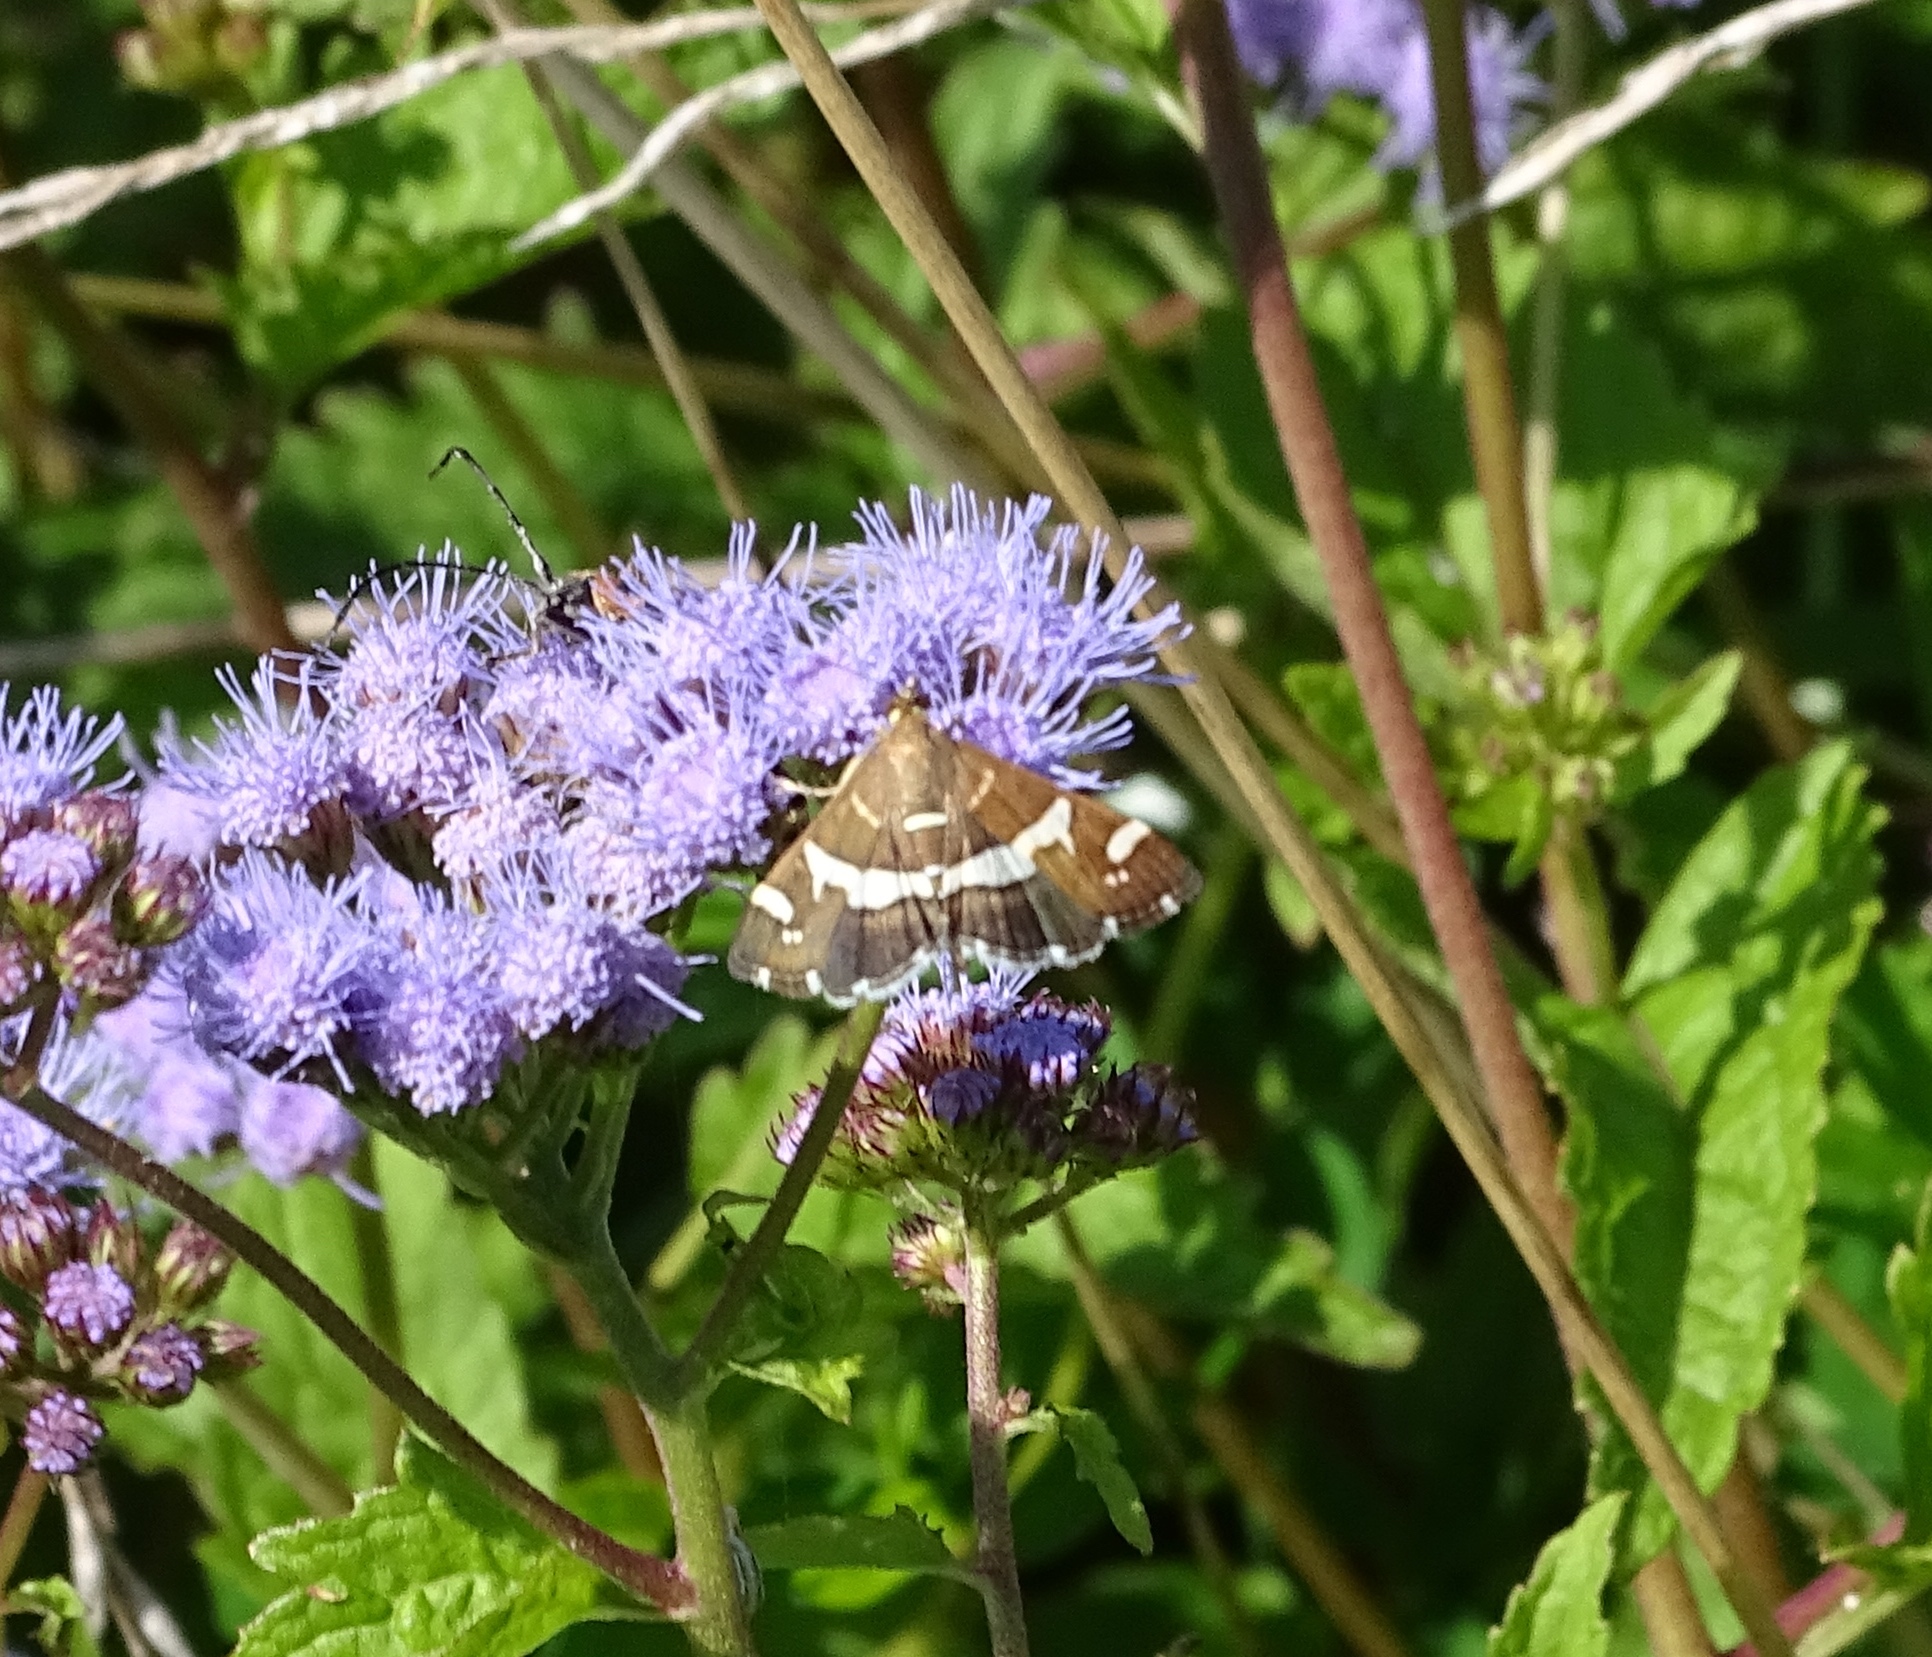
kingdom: Animalia
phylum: Arthropoda
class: Insecta
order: Lepidoptera
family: Crambidae
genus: Spoladea
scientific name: Spoladea recurvalis
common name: Beet webworm moth
